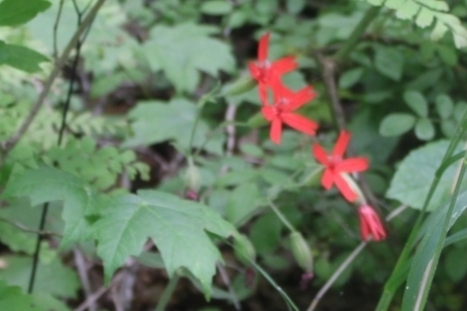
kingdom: Plantae
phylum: Tracheophyta
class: Magnoliopsida
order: Caryophyllales
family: Caryophyllaceae
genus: Silene
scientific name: Silene virginica
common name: Fire-pink
